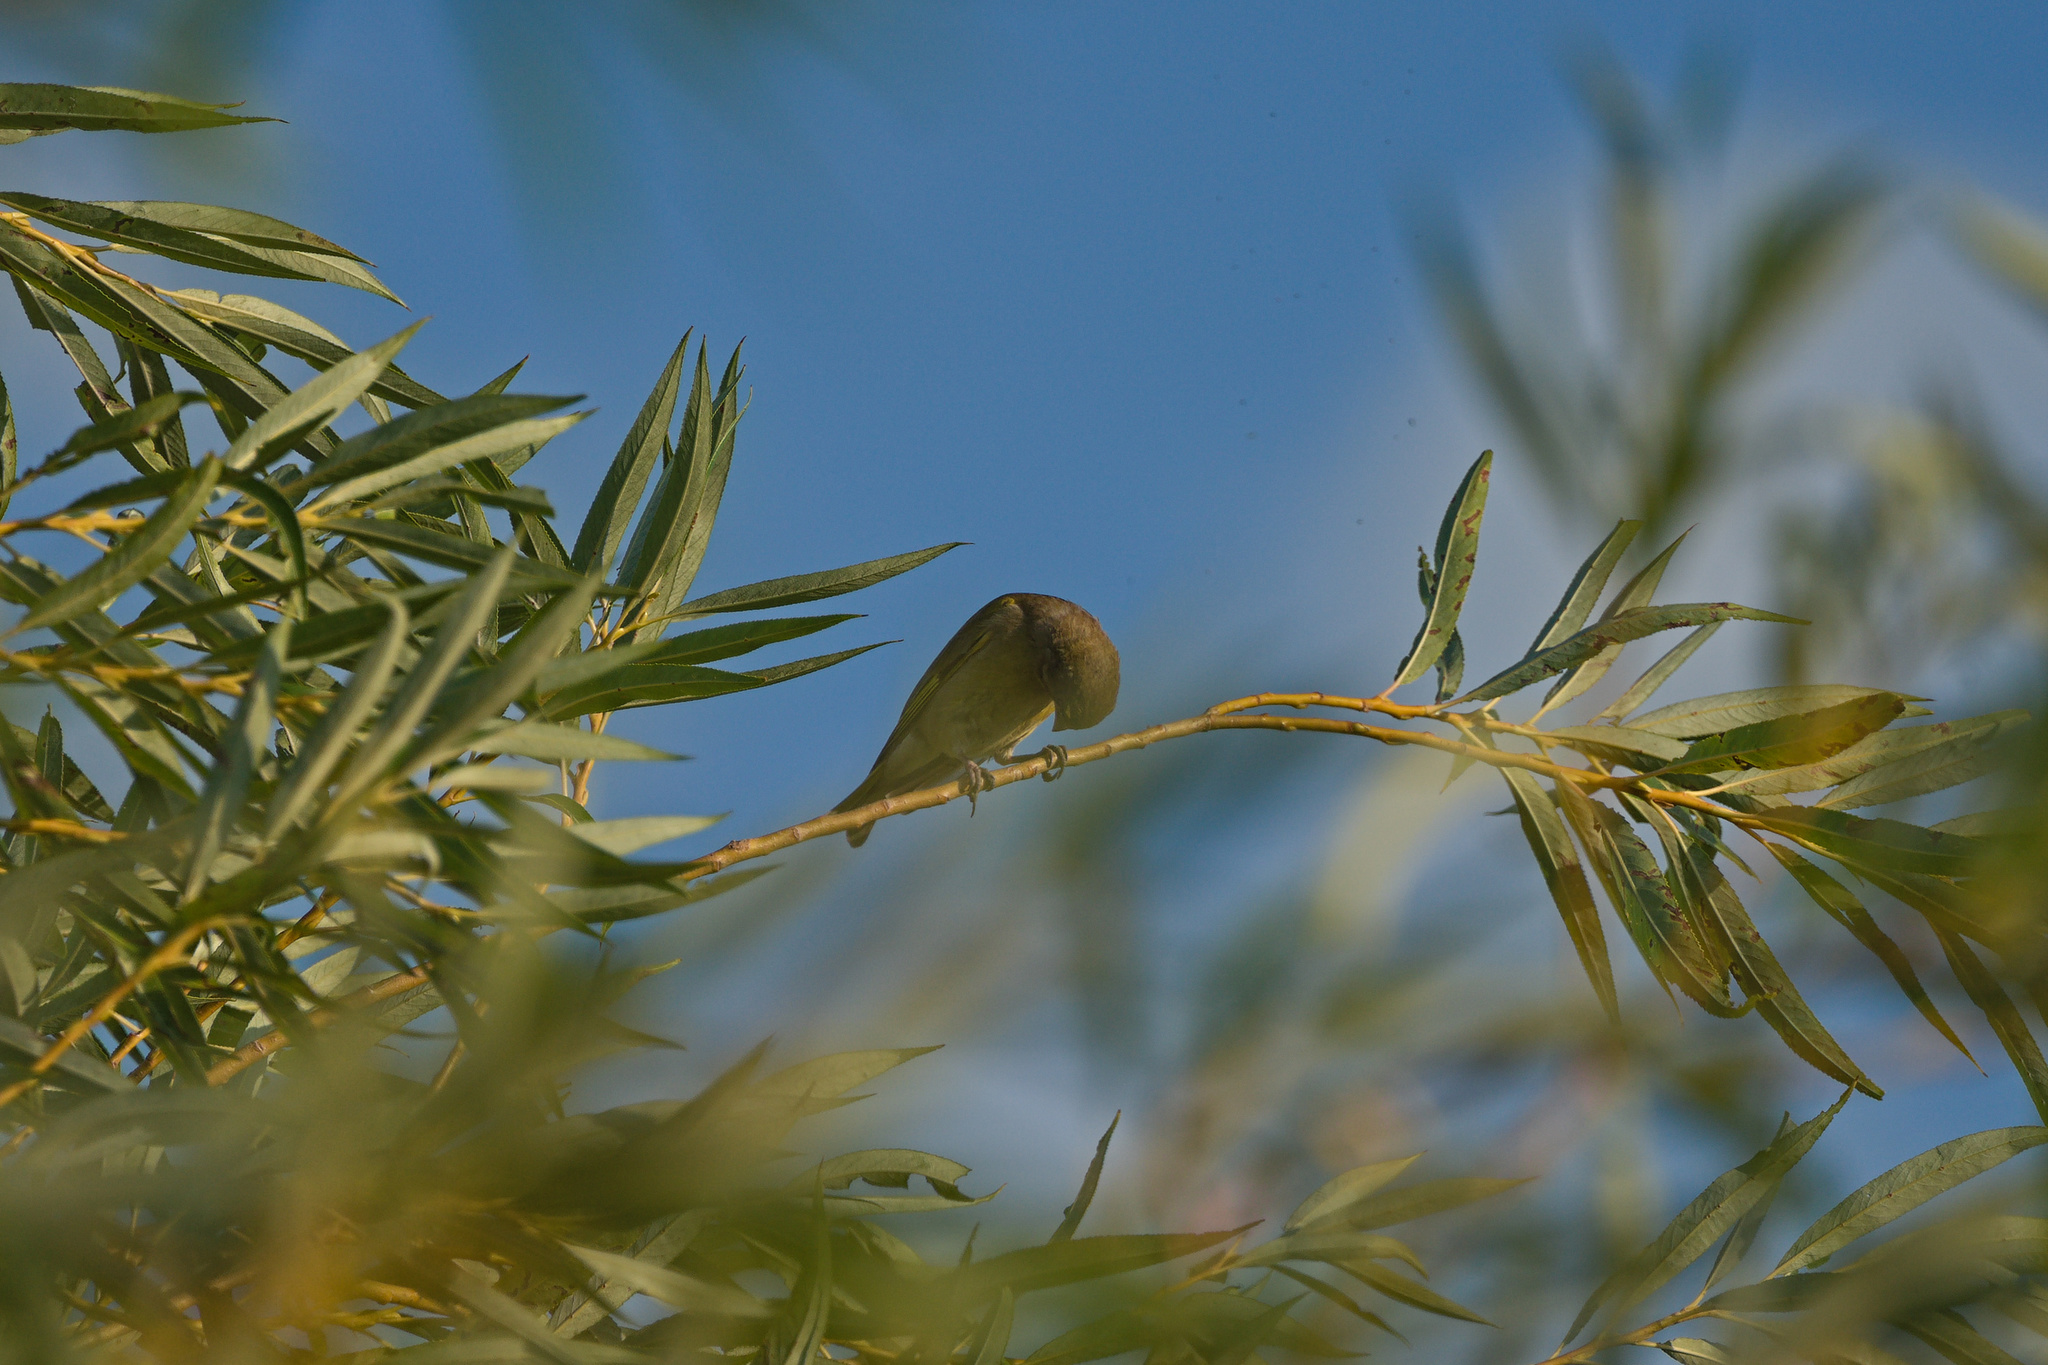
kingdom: Plantae
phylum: Tracheophyta
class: Liliopsida
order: Poales
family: Poaceae
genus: Chloris
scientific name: Chloris chloris
